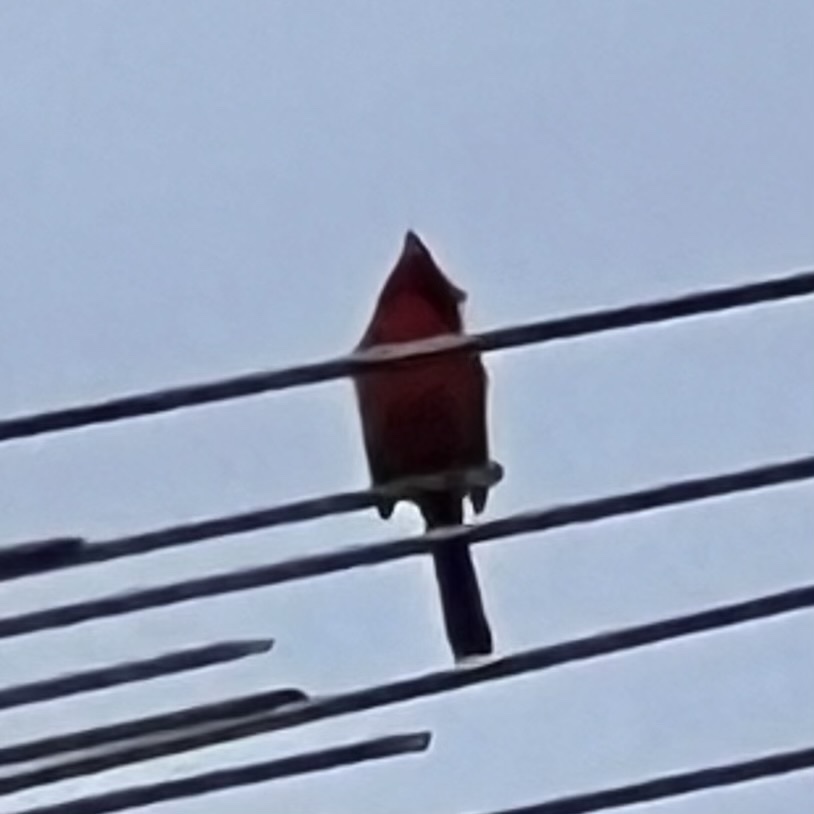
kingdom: Animalia
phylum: Chordata
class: Aves
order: Passeriformes
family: Cardinalidae
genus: Cardinalis
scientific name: Cardinalis cardinalis
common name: Northern cardinal
